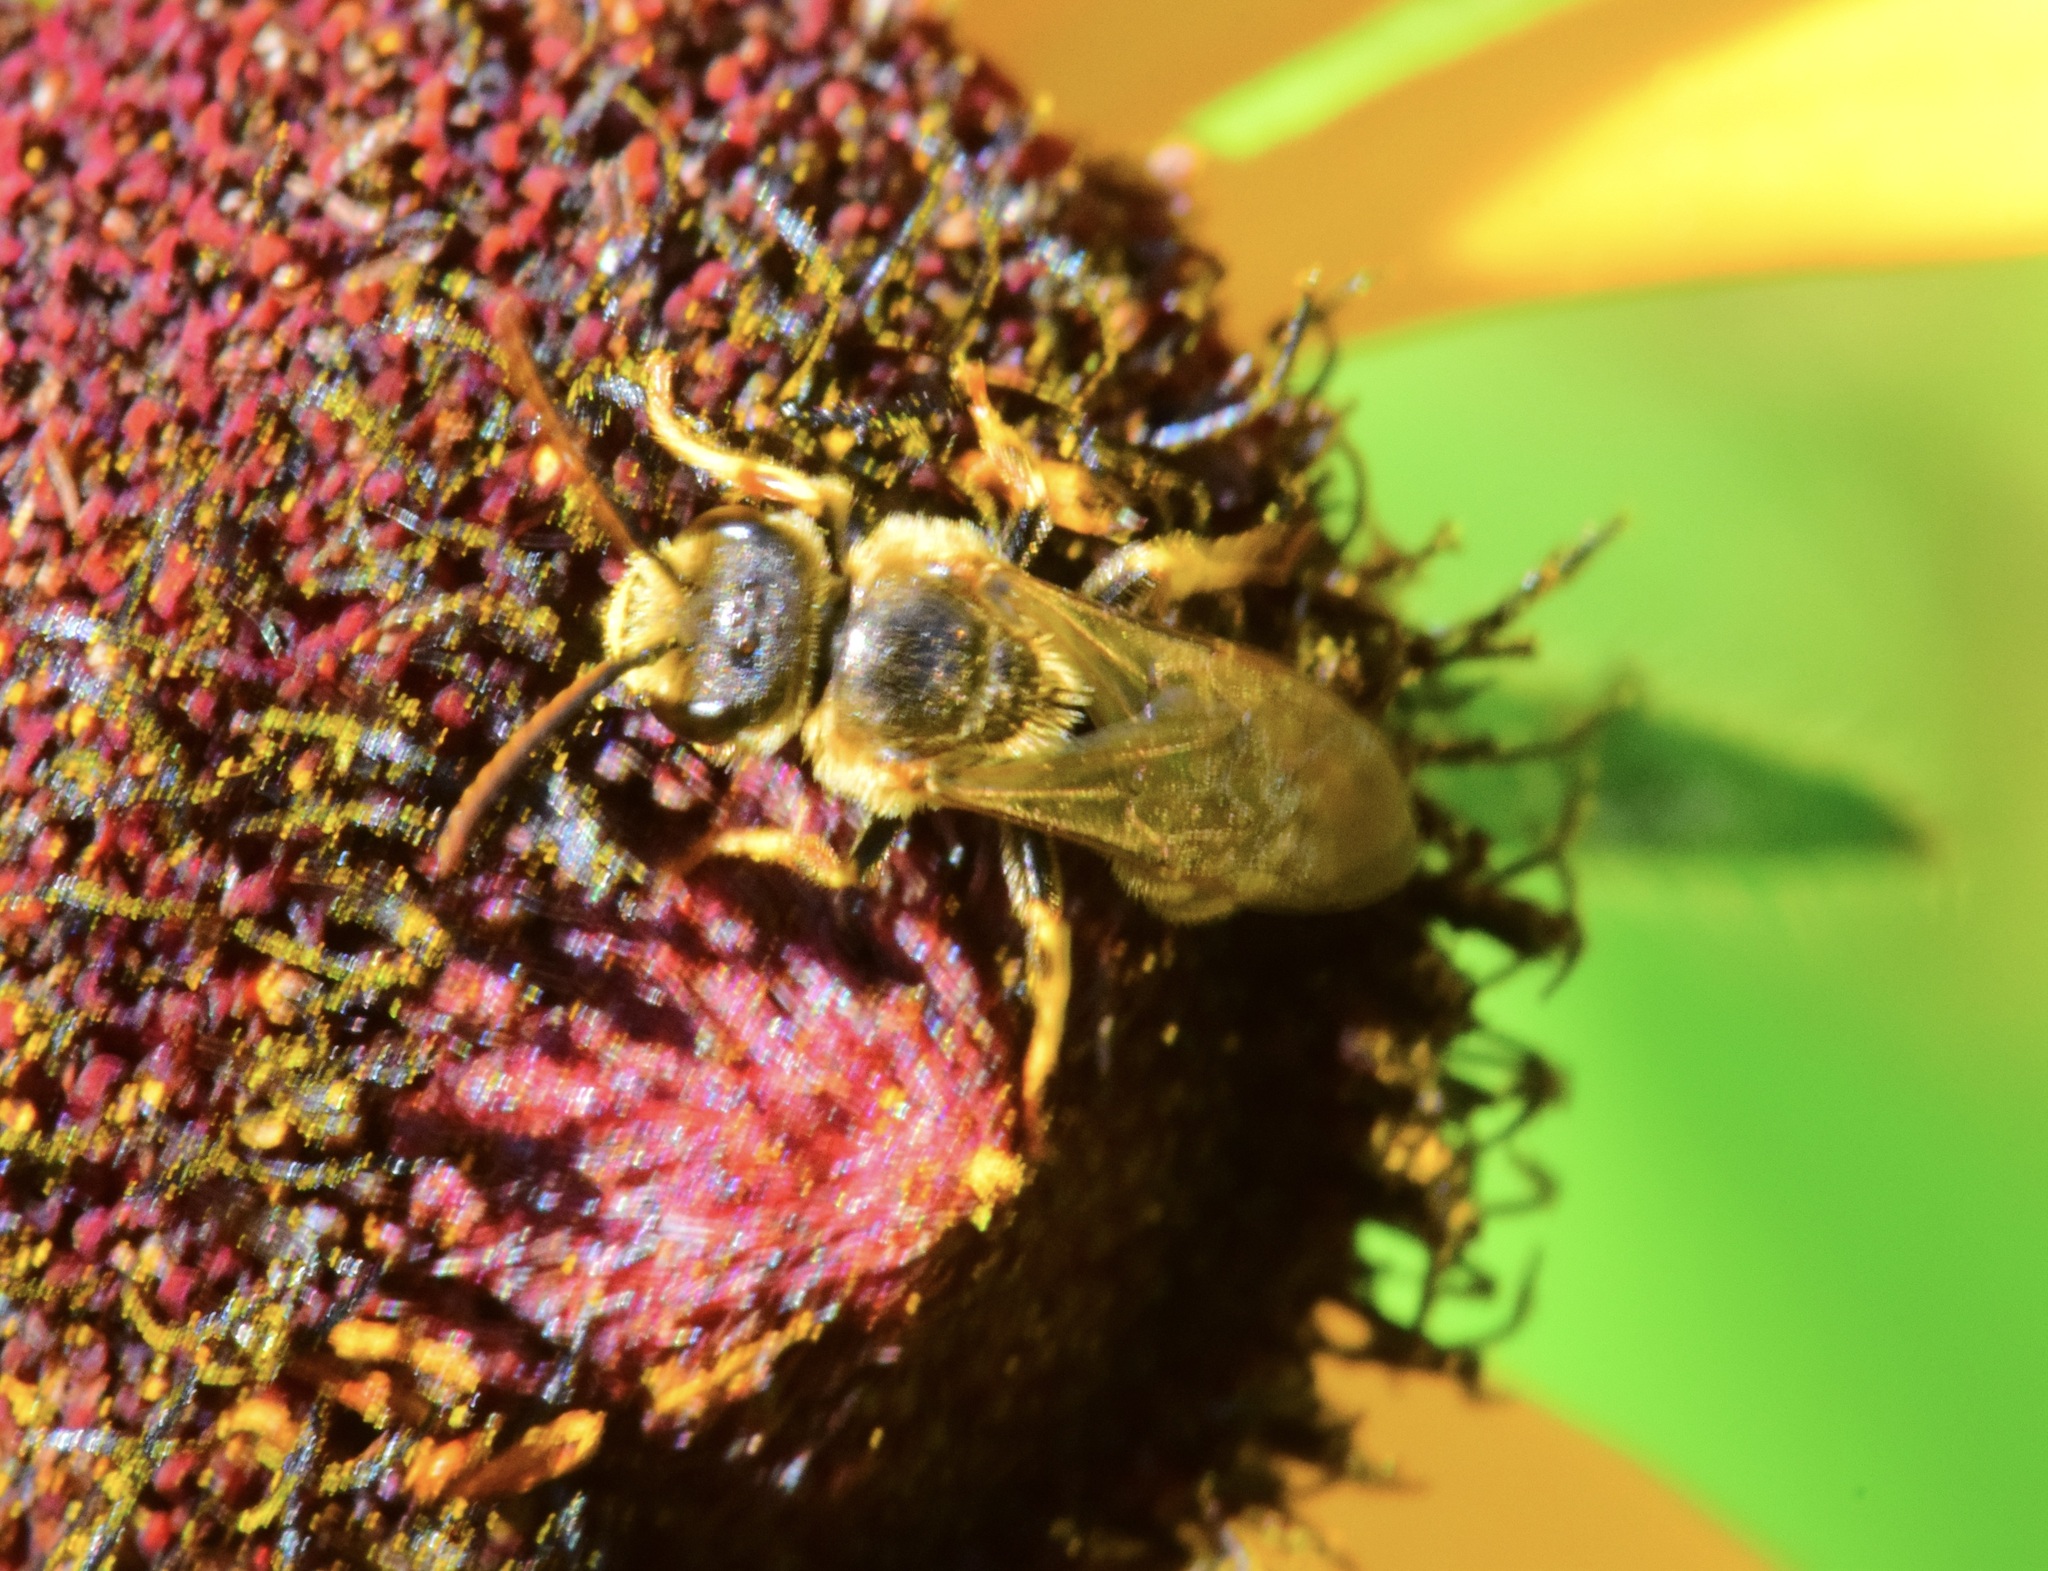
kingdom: Animalia
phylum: Arthropoda
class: Insecta
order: Hymenoptera
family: Halictidae
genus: Halictus
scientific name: Halictus ligatus
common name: Ligated furrow bee
